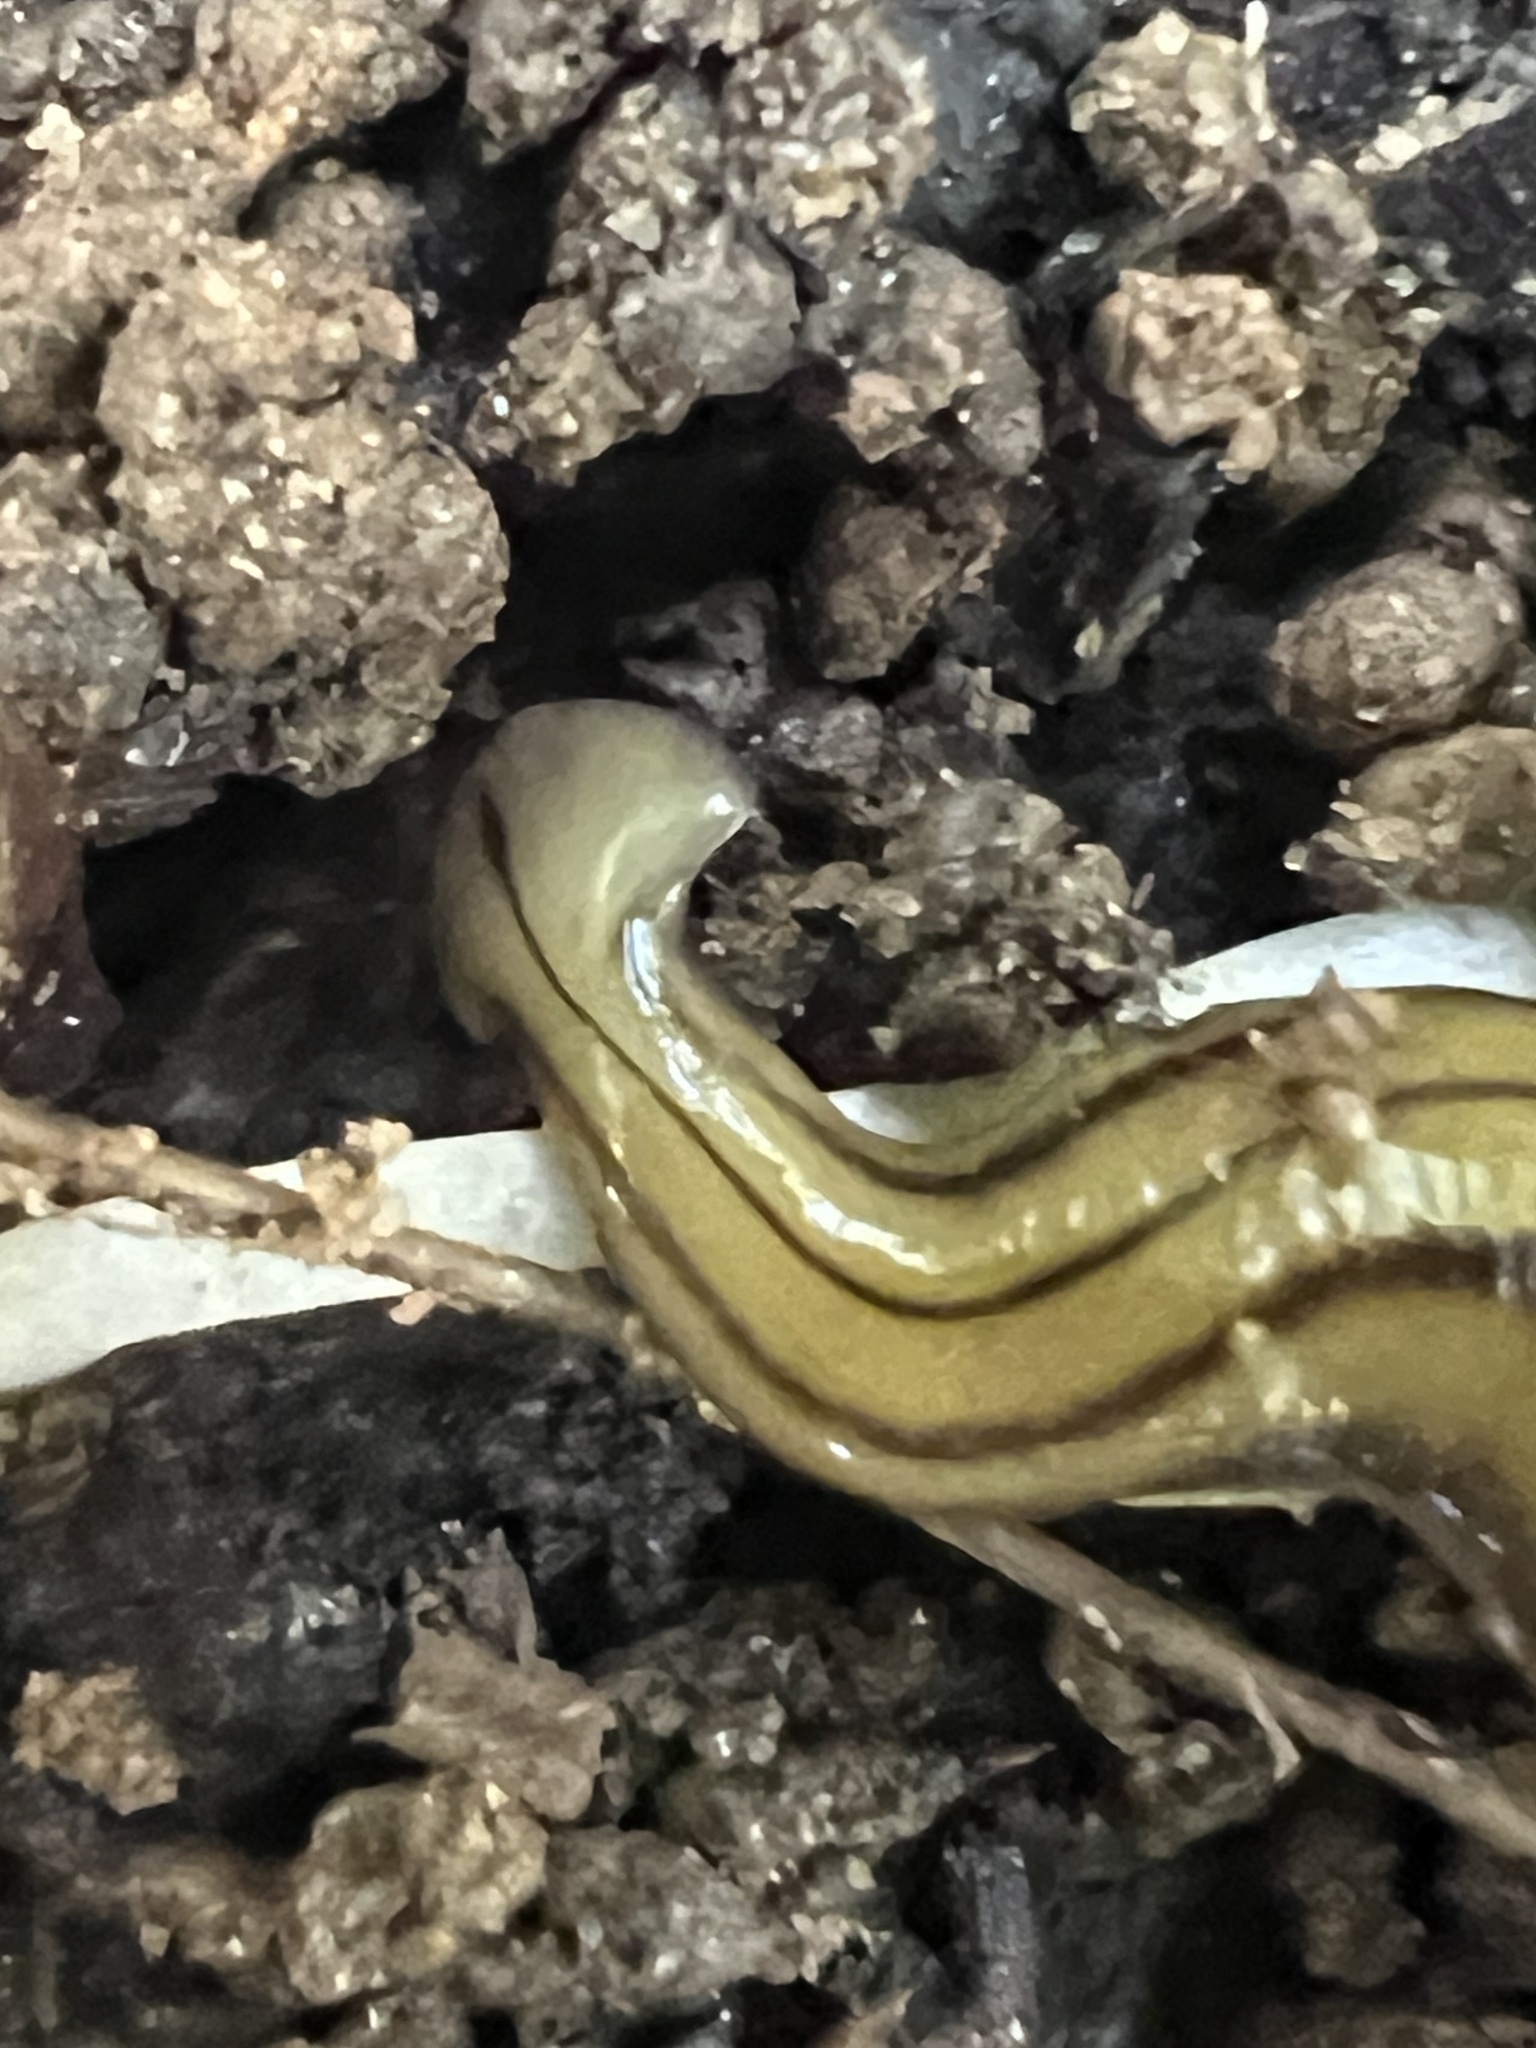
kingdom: Animalia
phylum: Platyhelminthes
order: Tricladida
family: Geoplanidae
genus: Diversibipalium
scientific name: Diversibipalium multilineatum
